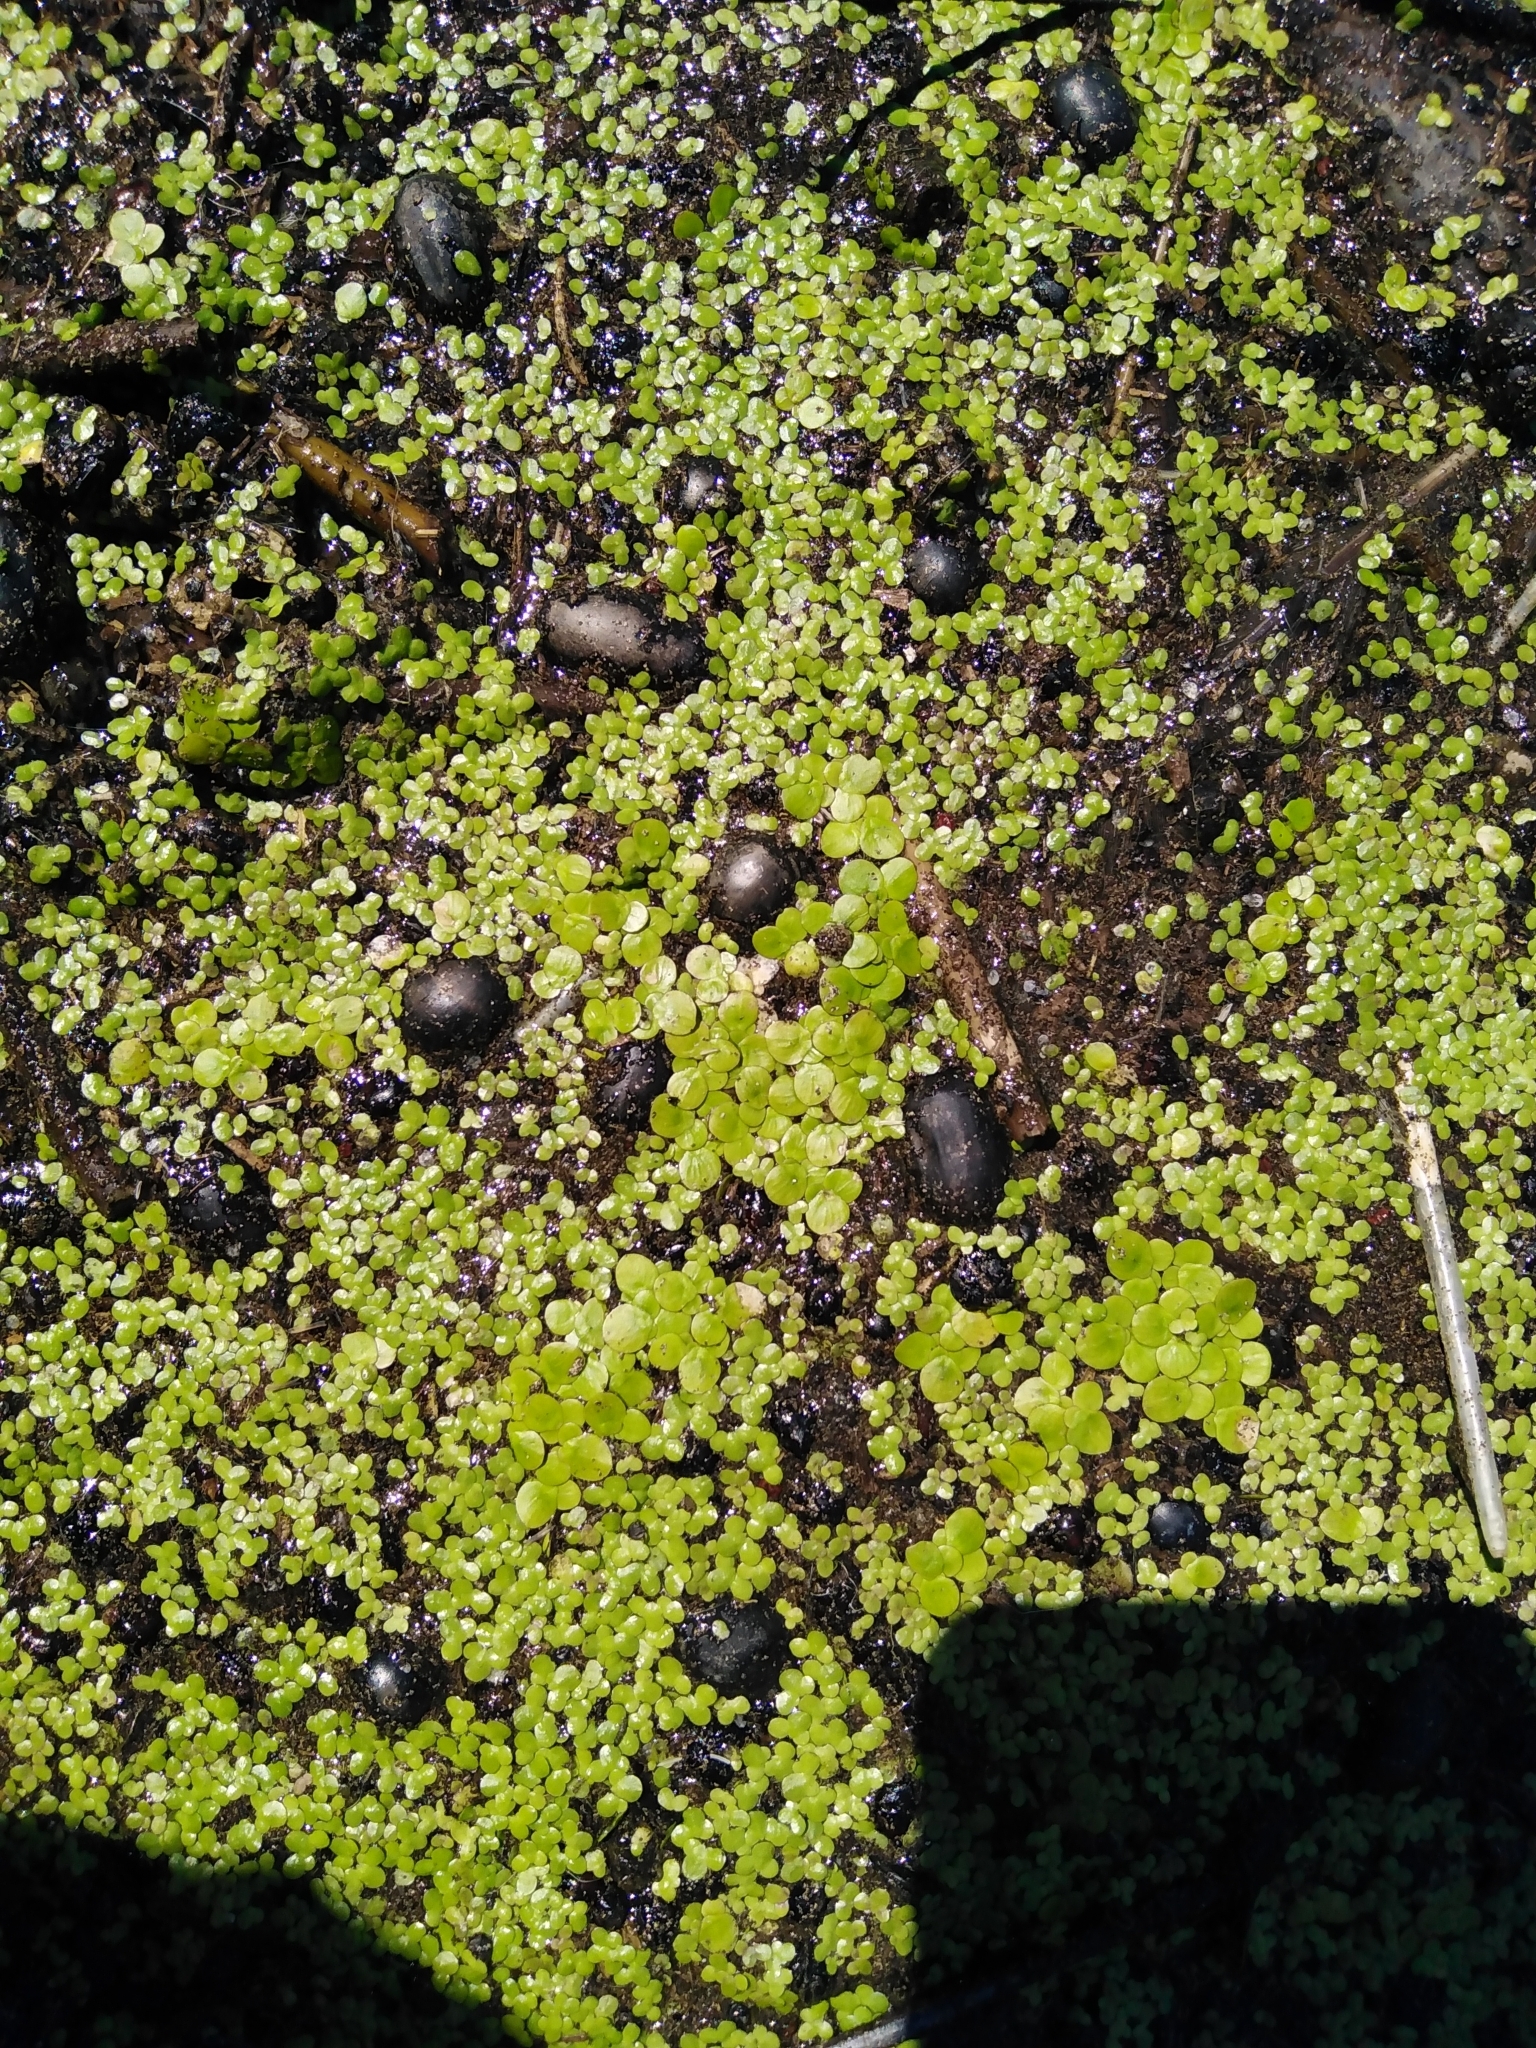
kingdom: Plantae
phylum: Tracheophyta
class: Liliopsida
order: Alismatales
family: Araceae
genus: Spirodela
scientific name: Spirodela polyrhiza
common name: Great duckweed
